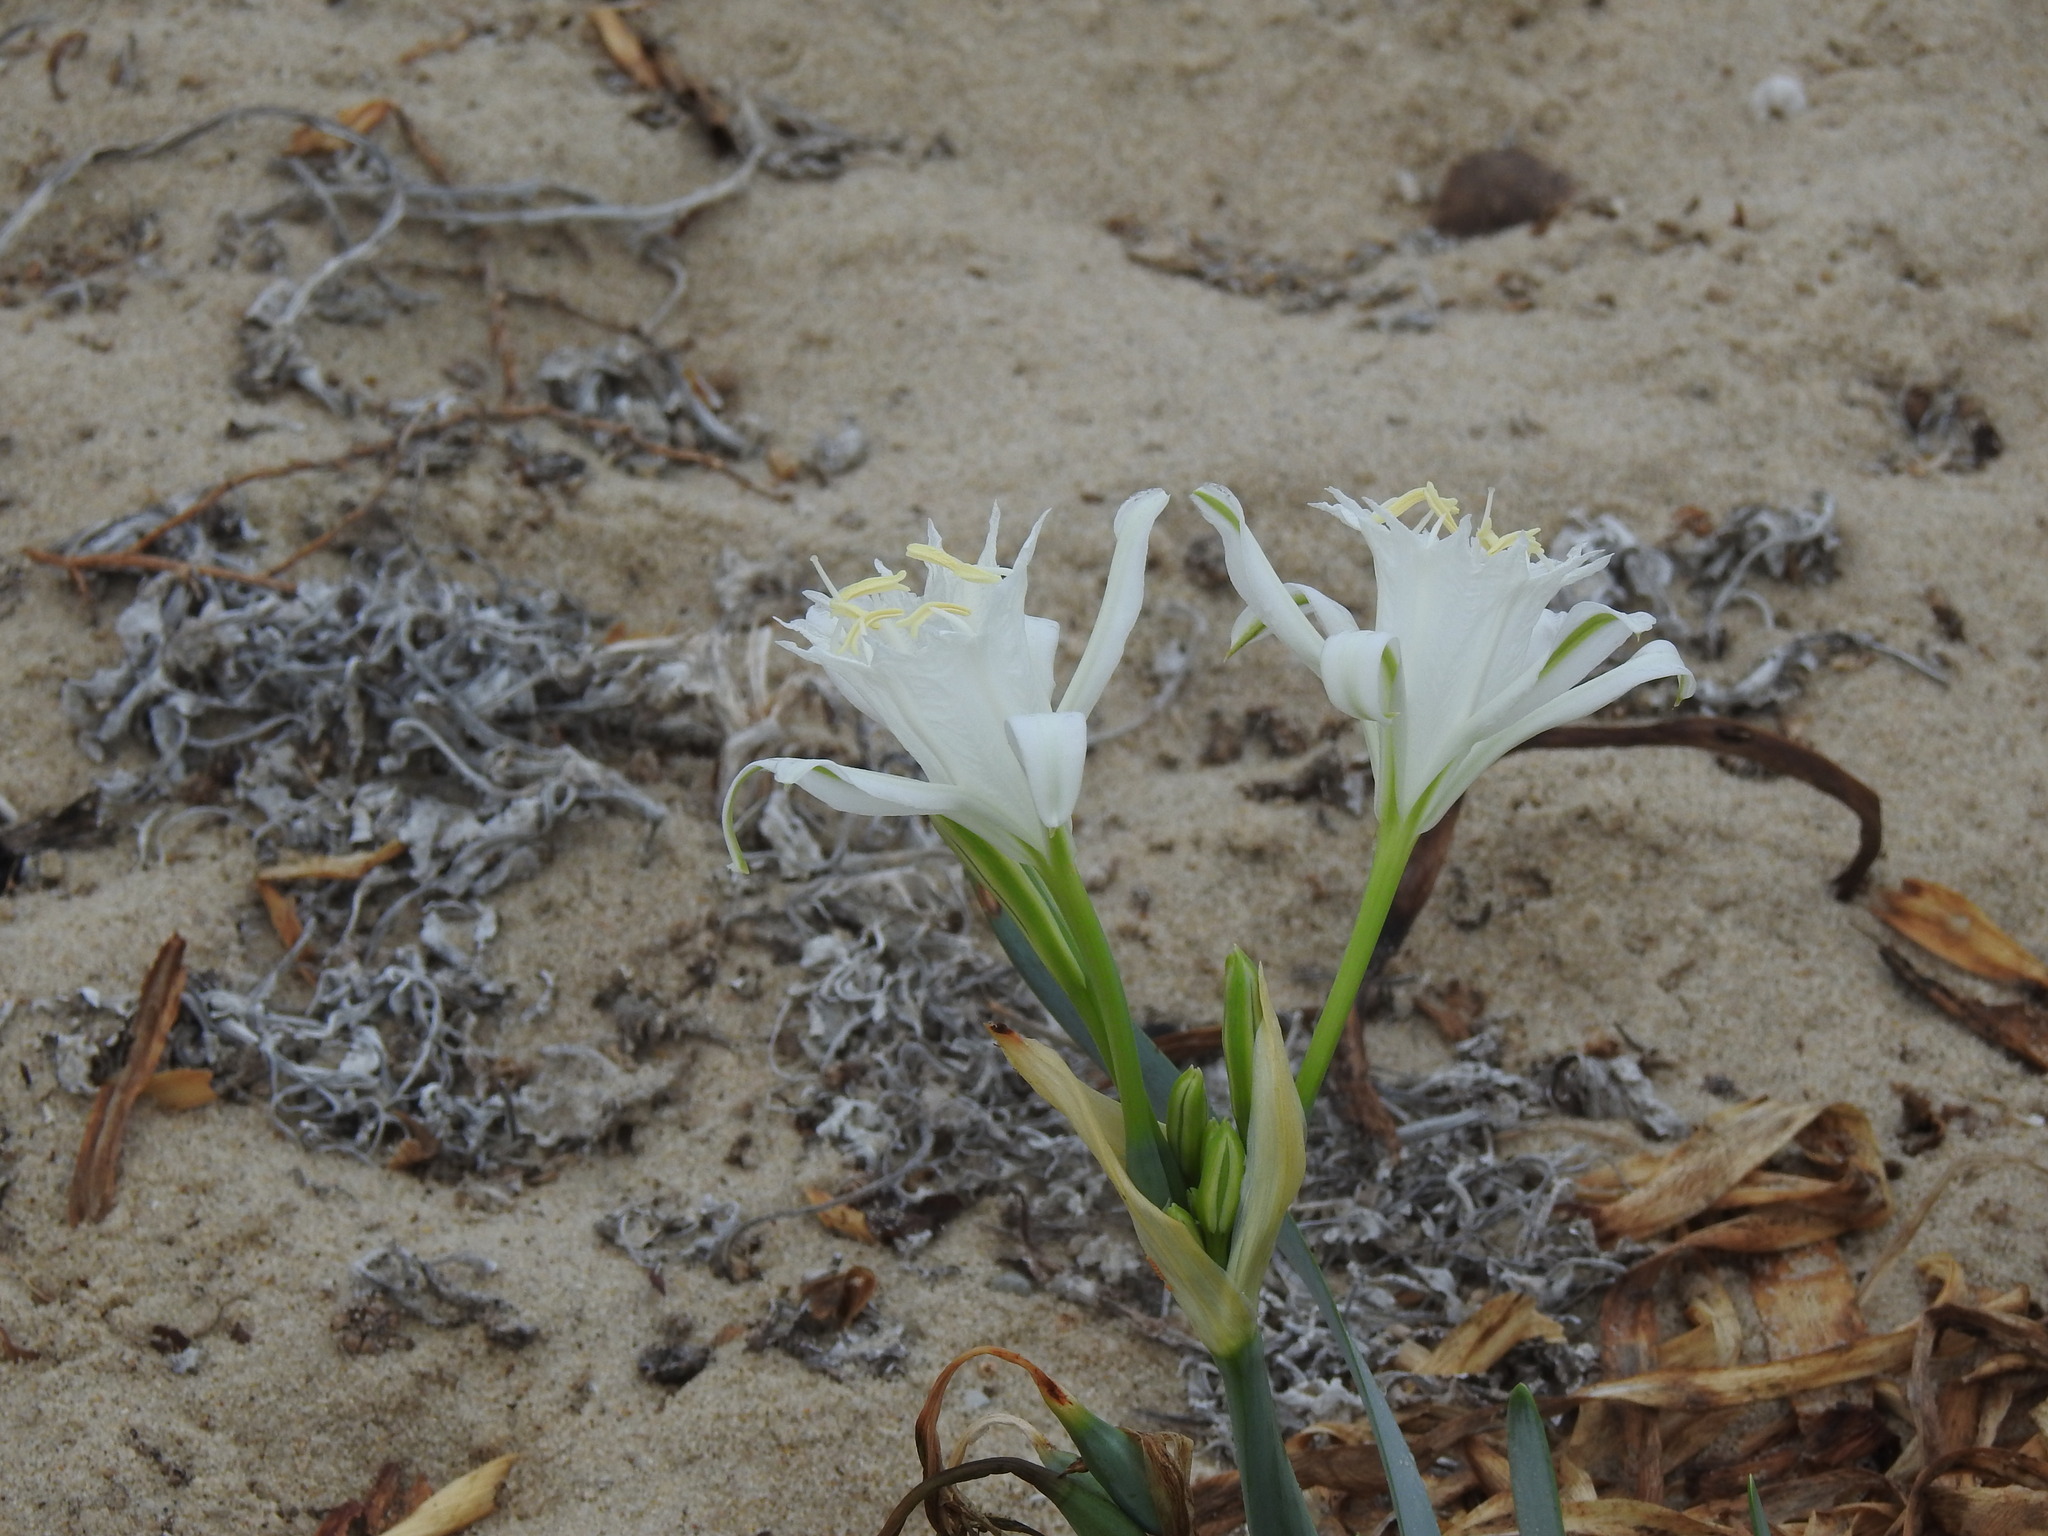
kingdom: Plantae
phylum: Tracheophyta
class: Liliopsida
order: Asparagales
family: Amaryllidaceae
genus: Pancratium
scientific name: Pancratium maritimum
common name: Sea-daffodil
